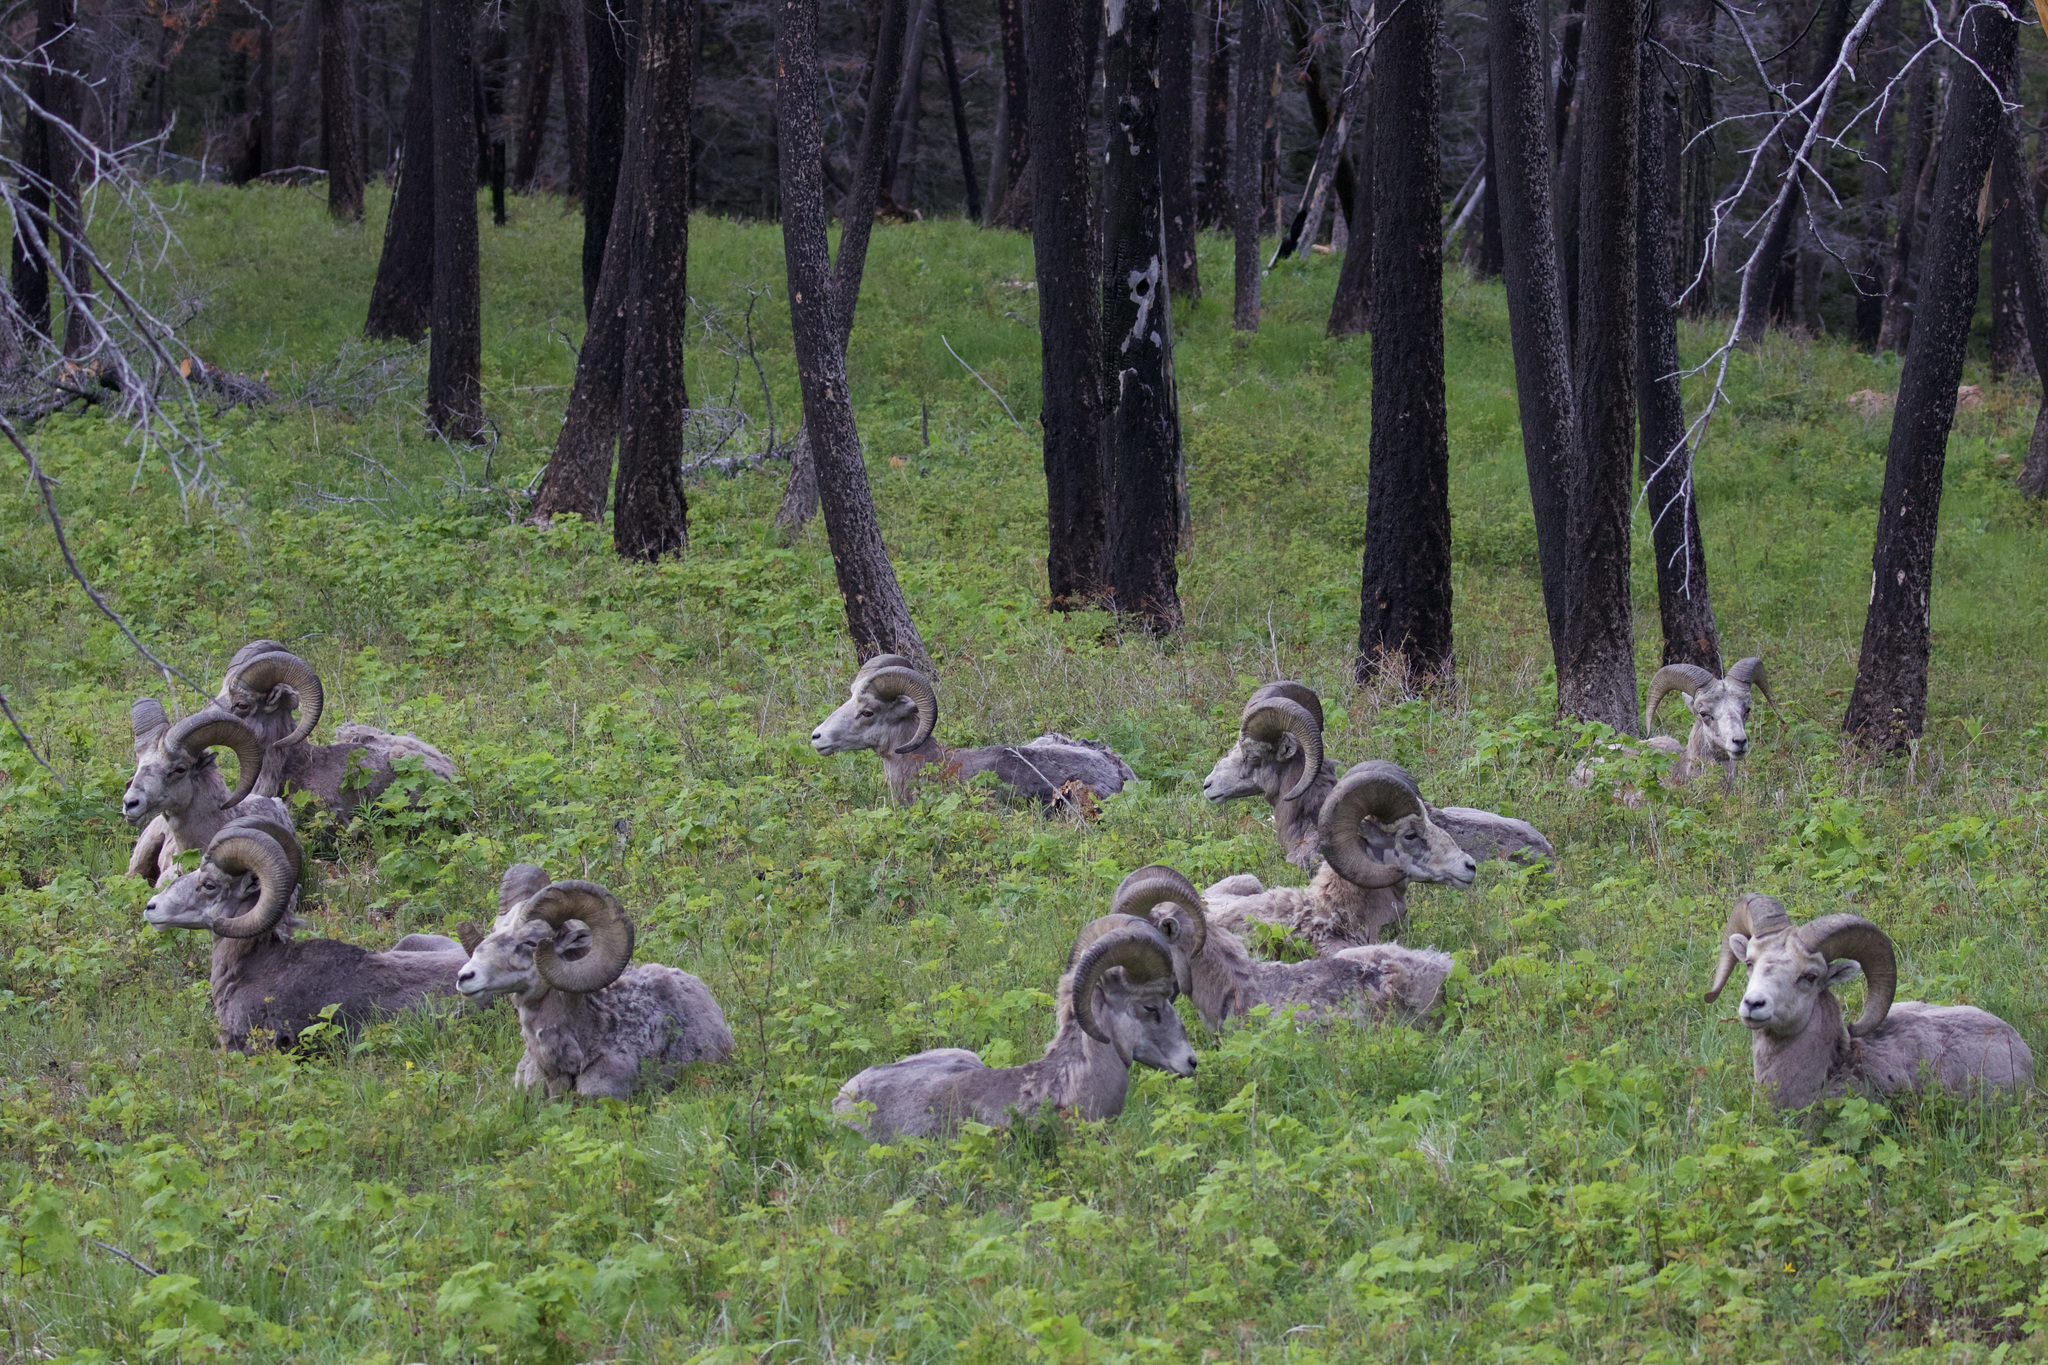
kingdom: Animalia
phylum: Chordata
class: Mammalia
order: Artiodactyla
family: Bovidae
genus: Ovis
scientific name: Ovis canadensis
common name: Bighorn sheep
